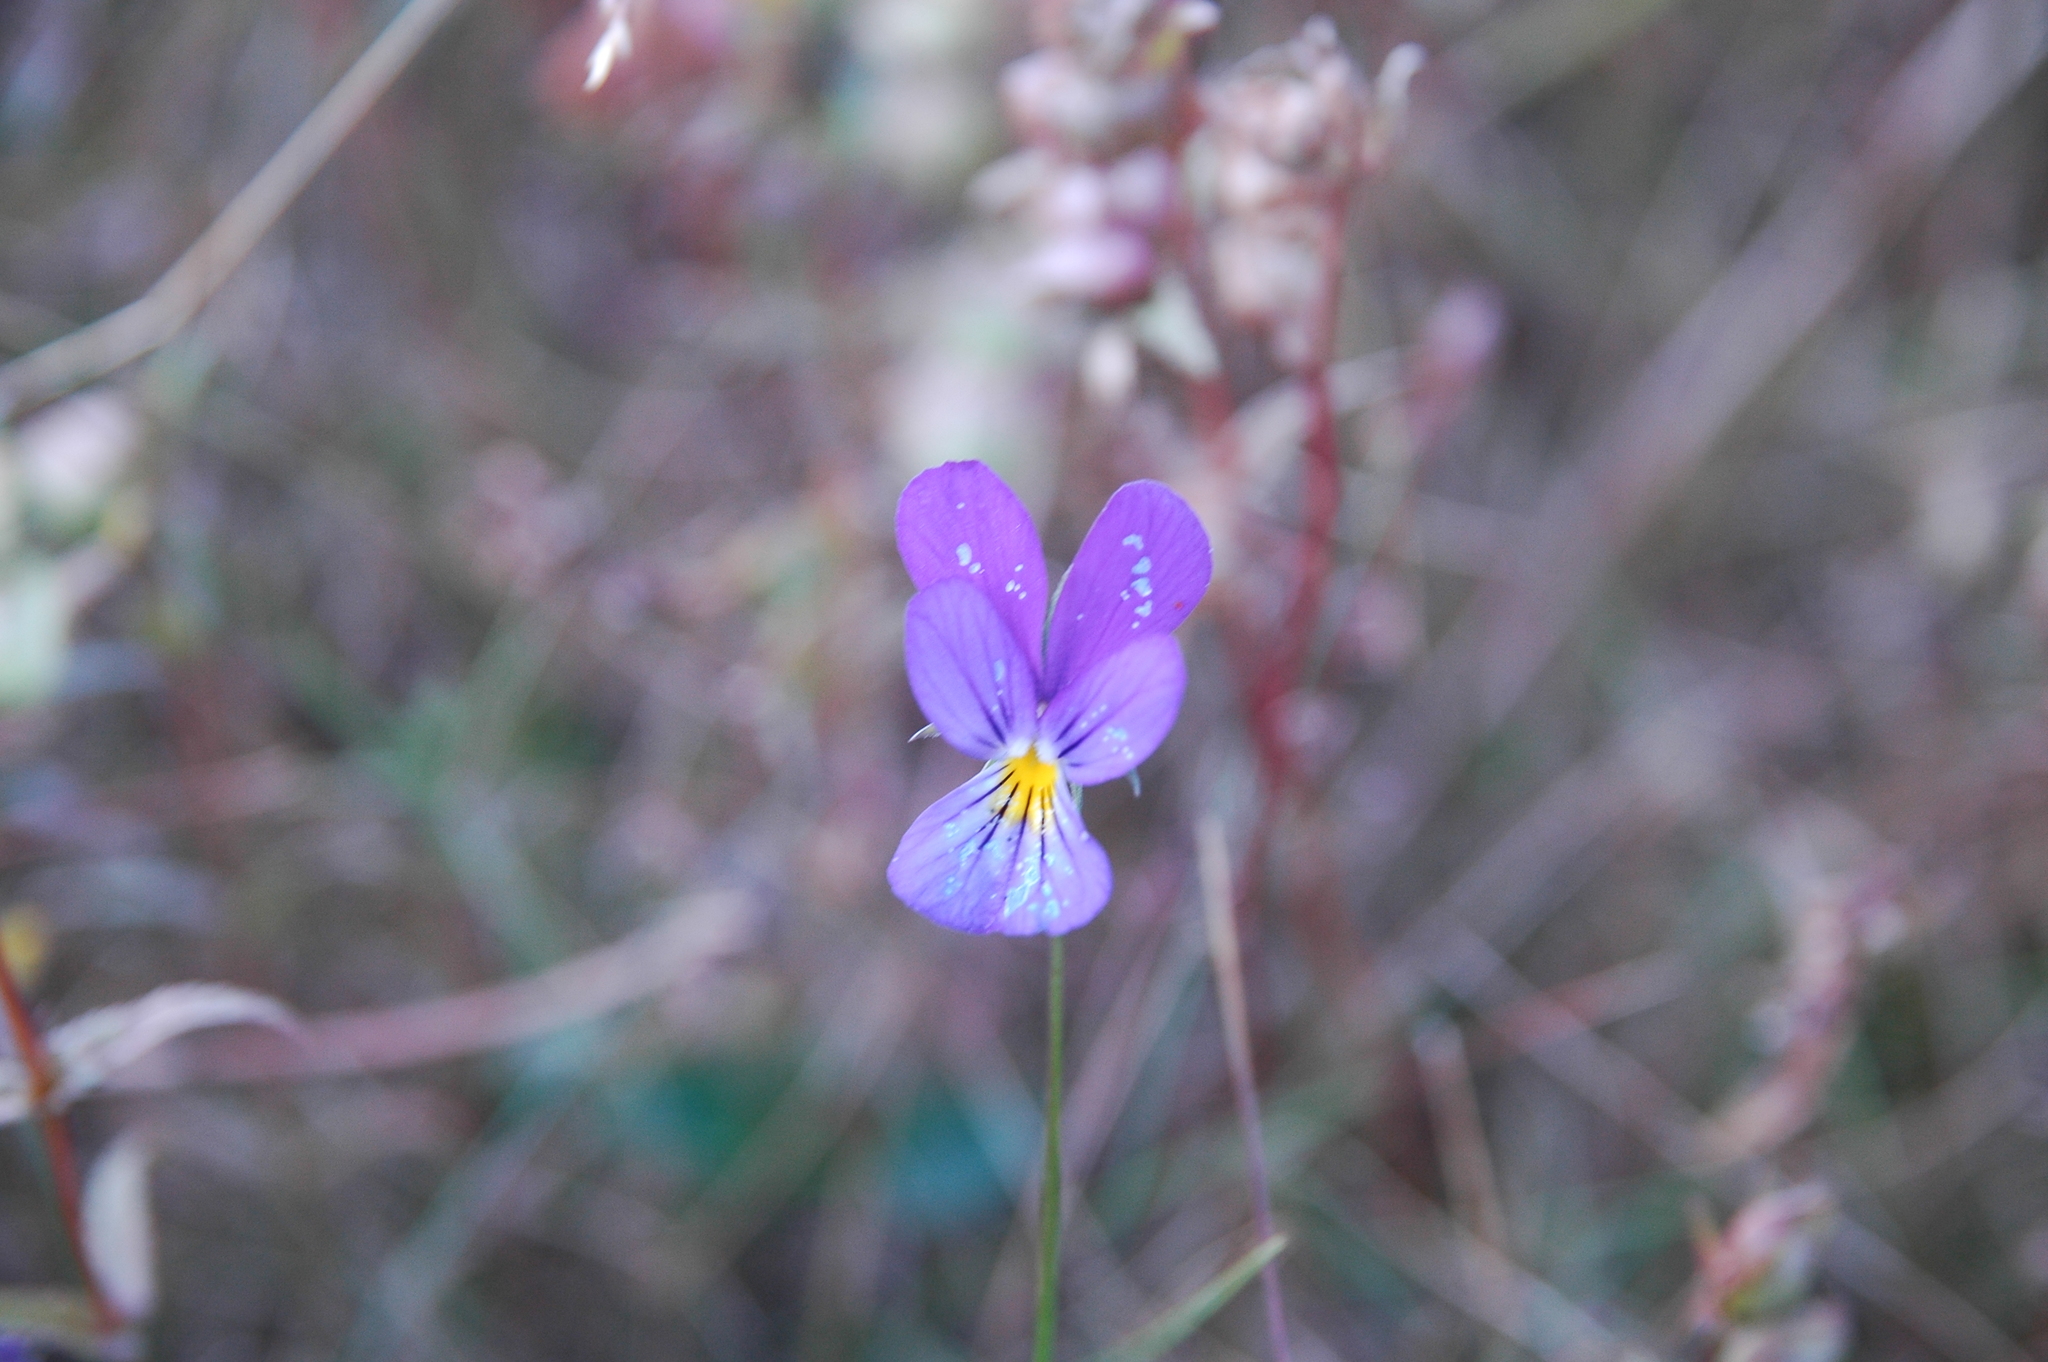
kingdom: Plantae
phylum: Tracheophyta
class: Magnoliopsida
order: Malpighiales
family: Violaceae
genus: Viola
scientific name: Viola tricolor
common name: Pansy
